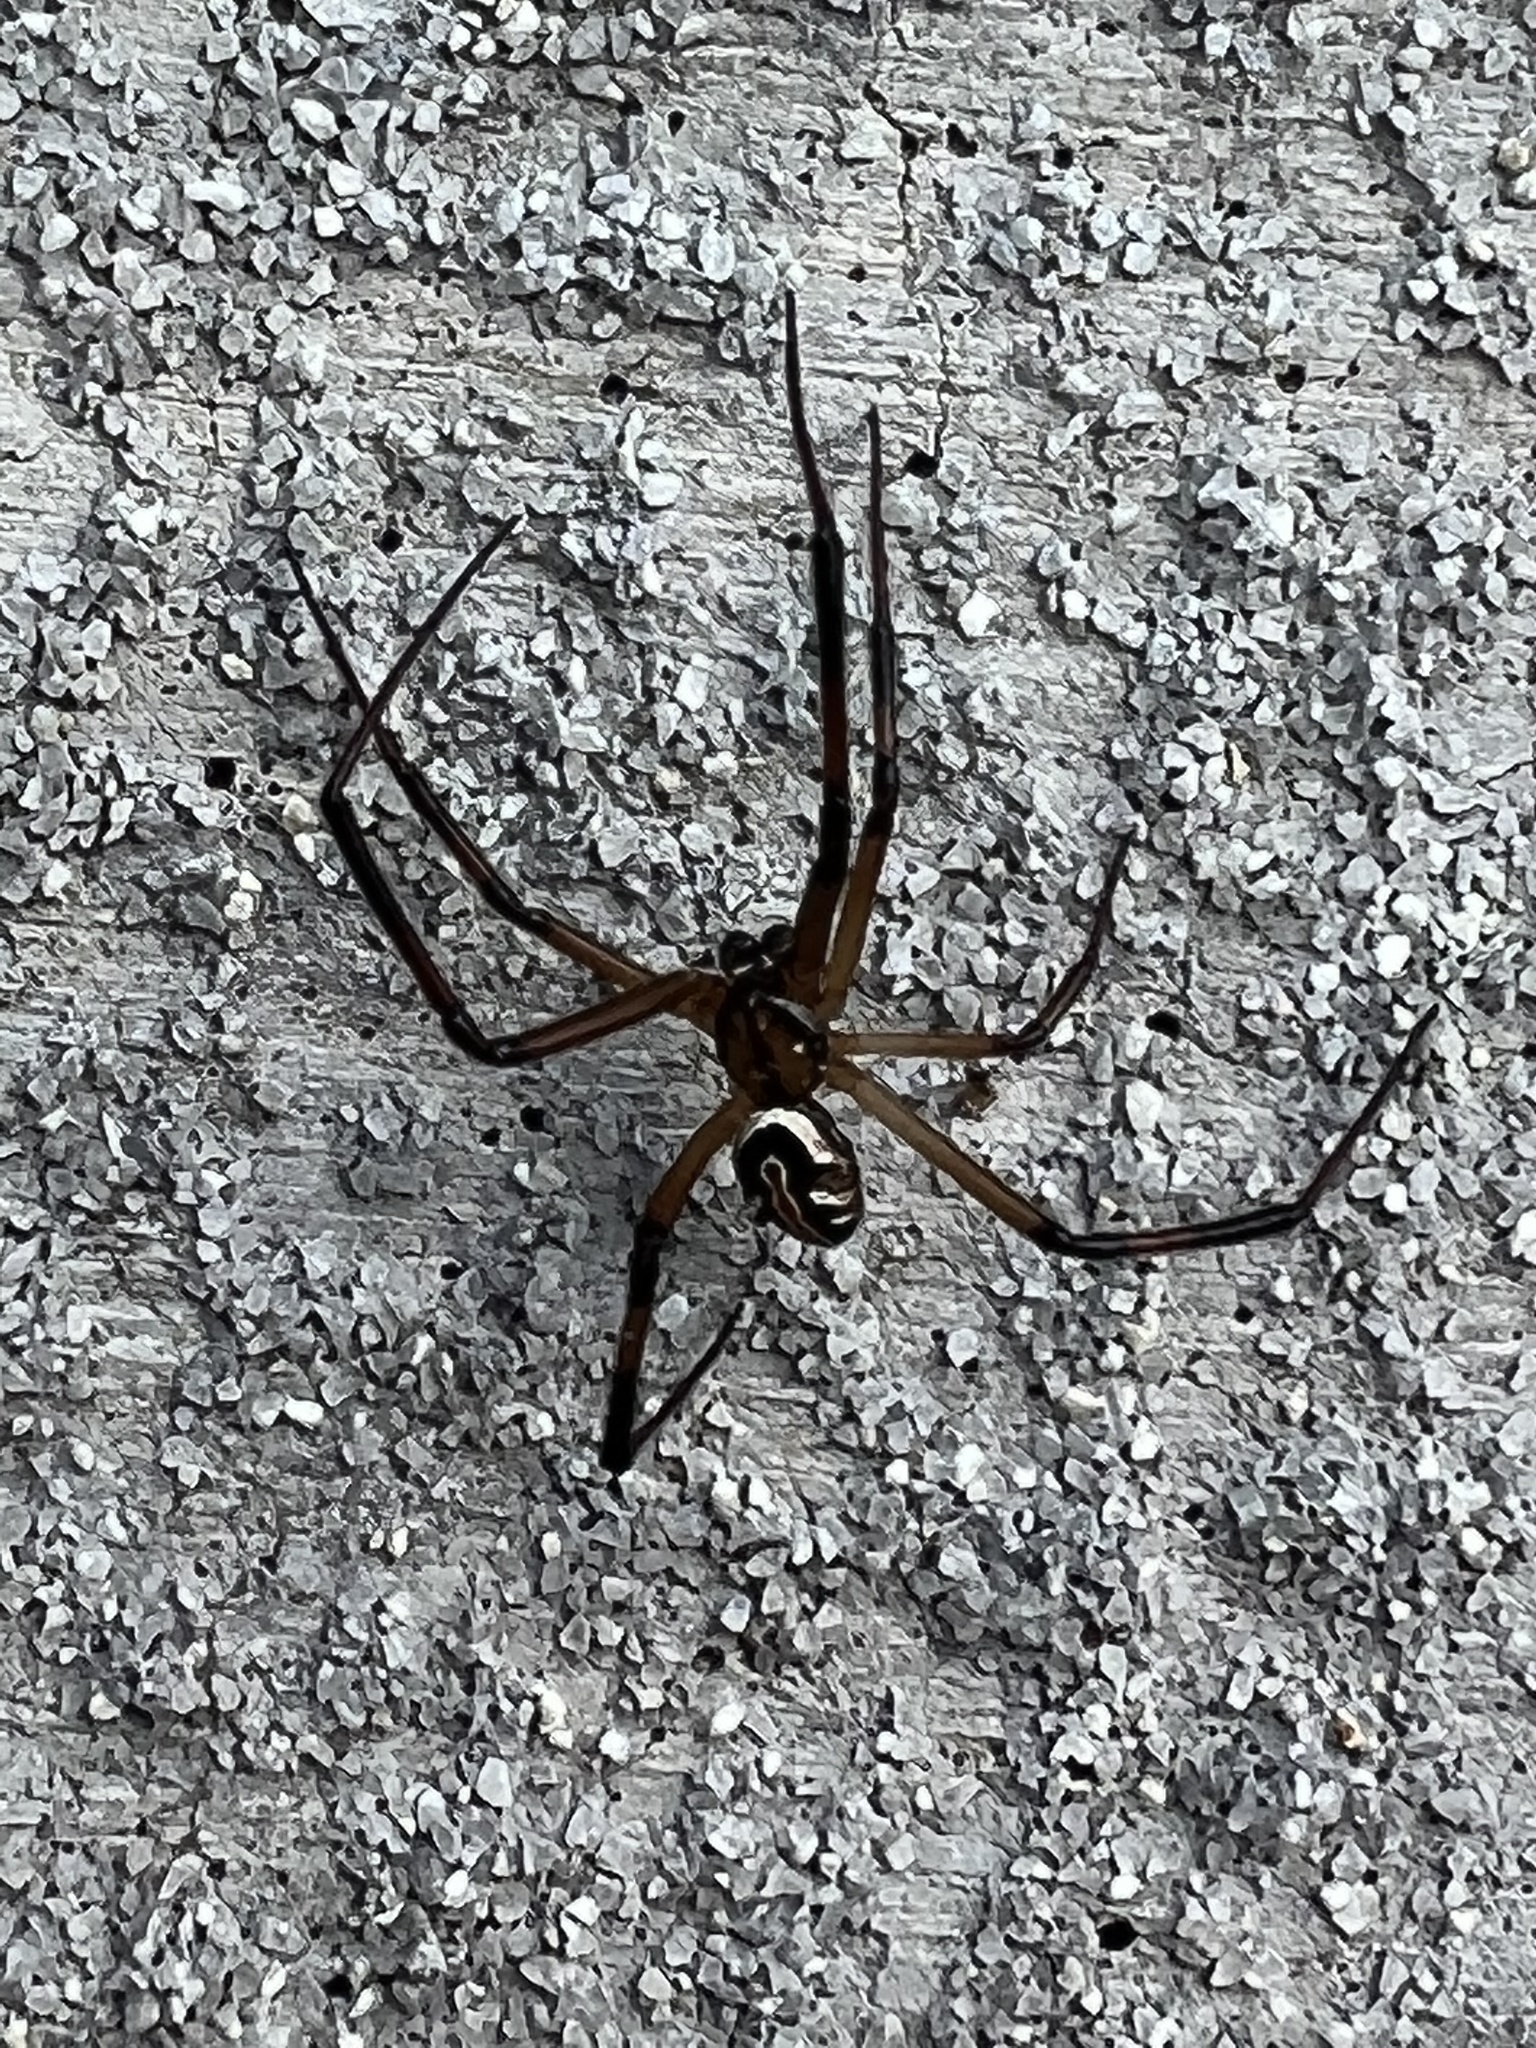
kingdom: Animalia
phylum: Arthropoda
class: Arachnida
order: Araneae
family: Theridiidae
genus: Latrodectus
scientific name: Latrodectus hesperus
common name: Western black widow
